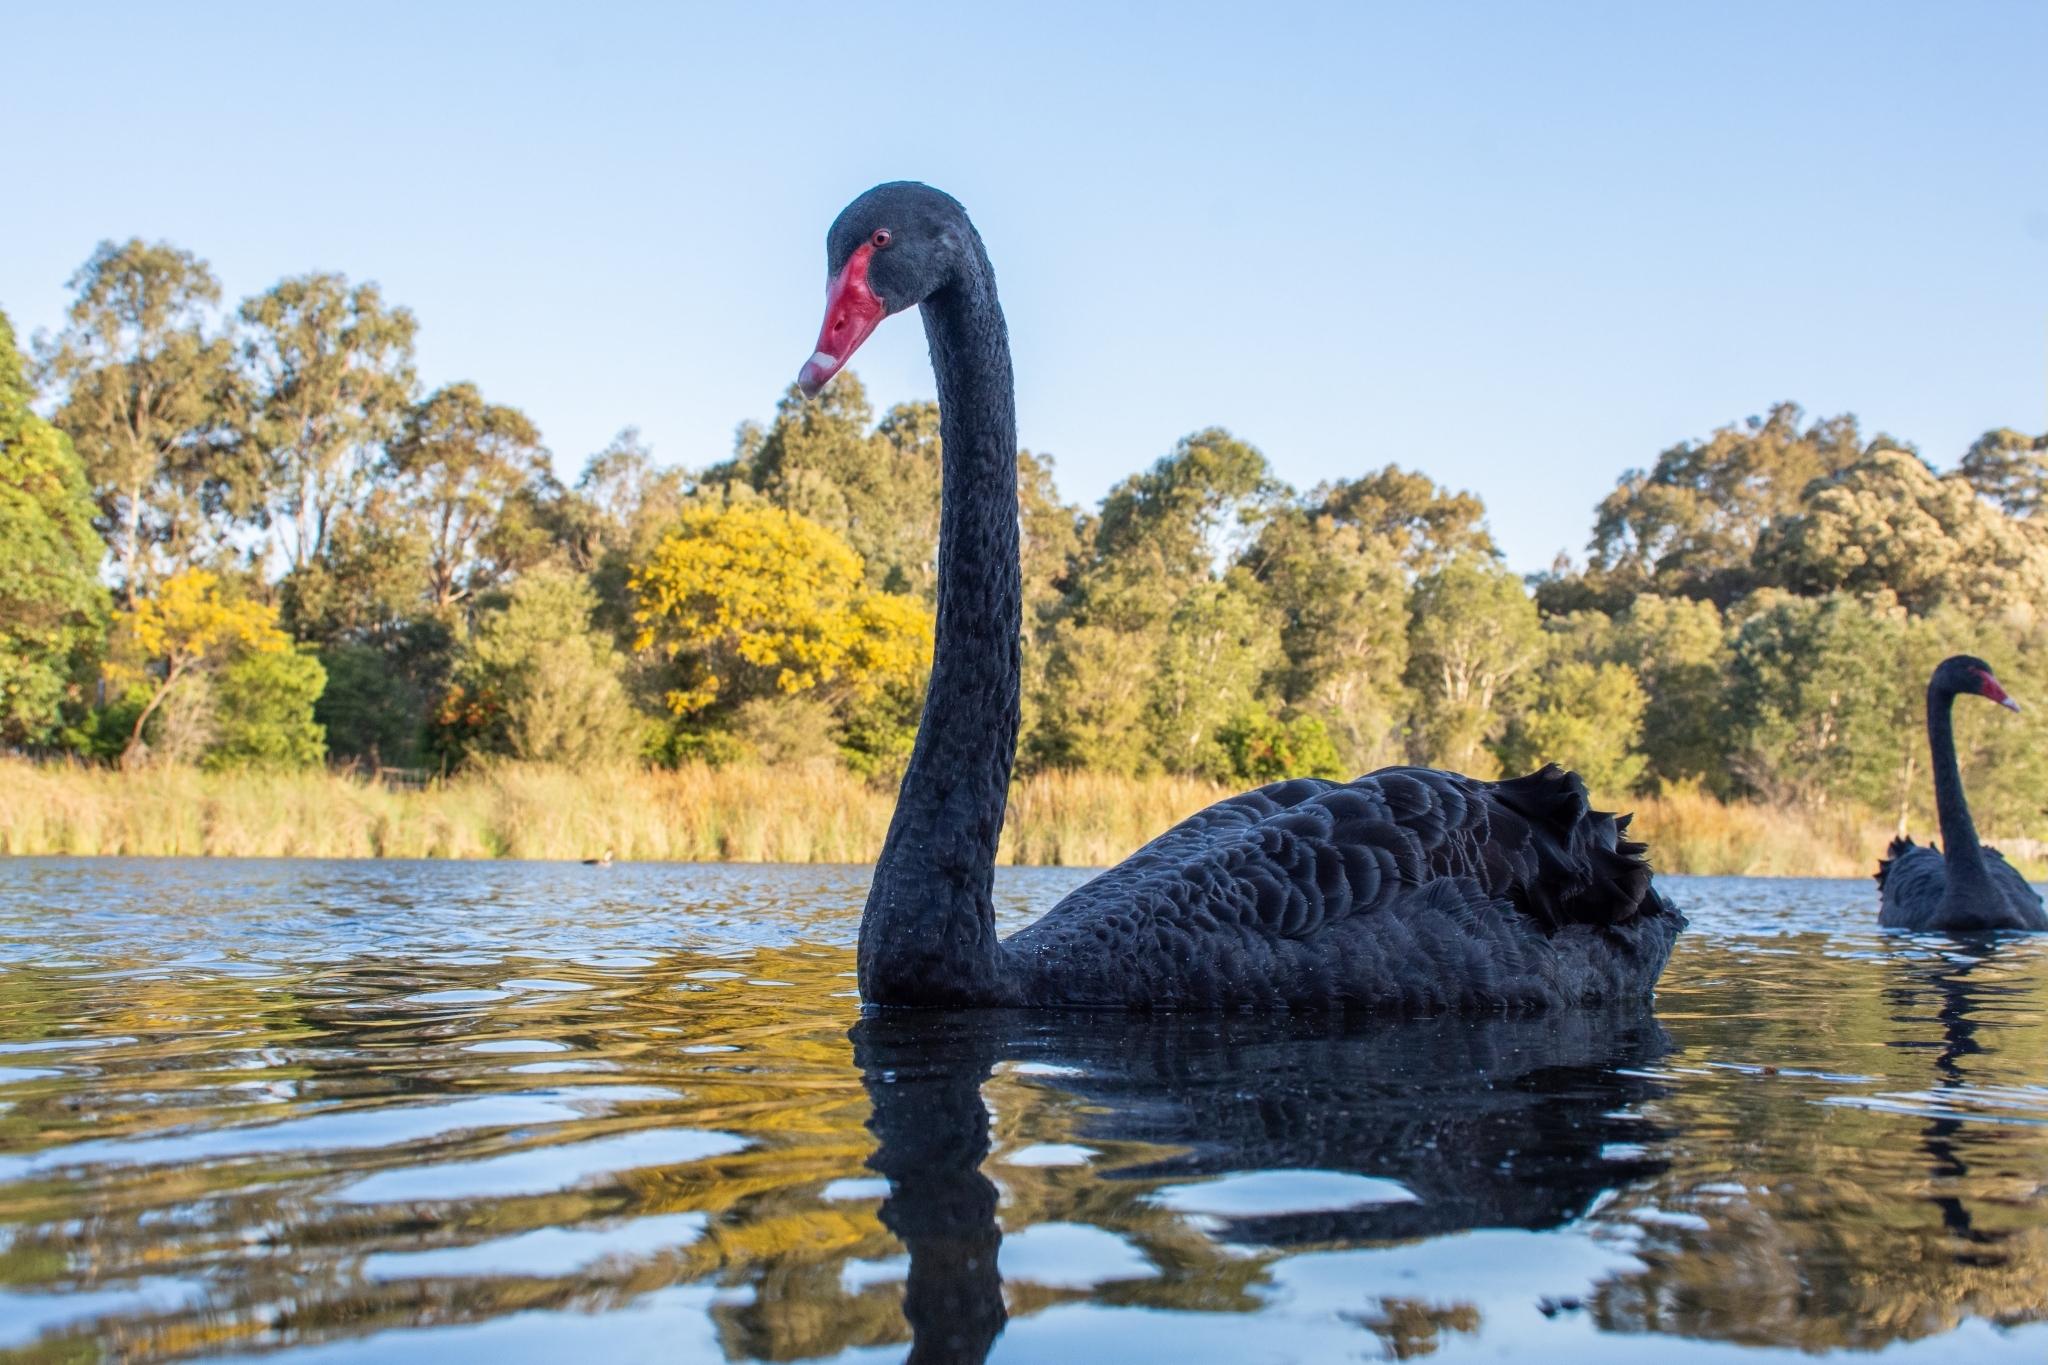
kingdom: Animalia
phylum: Chordata
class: Aves
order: Anseriformes
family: Anatidae
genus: Cygnus
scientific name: Cygnus atratus
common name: Black swan
